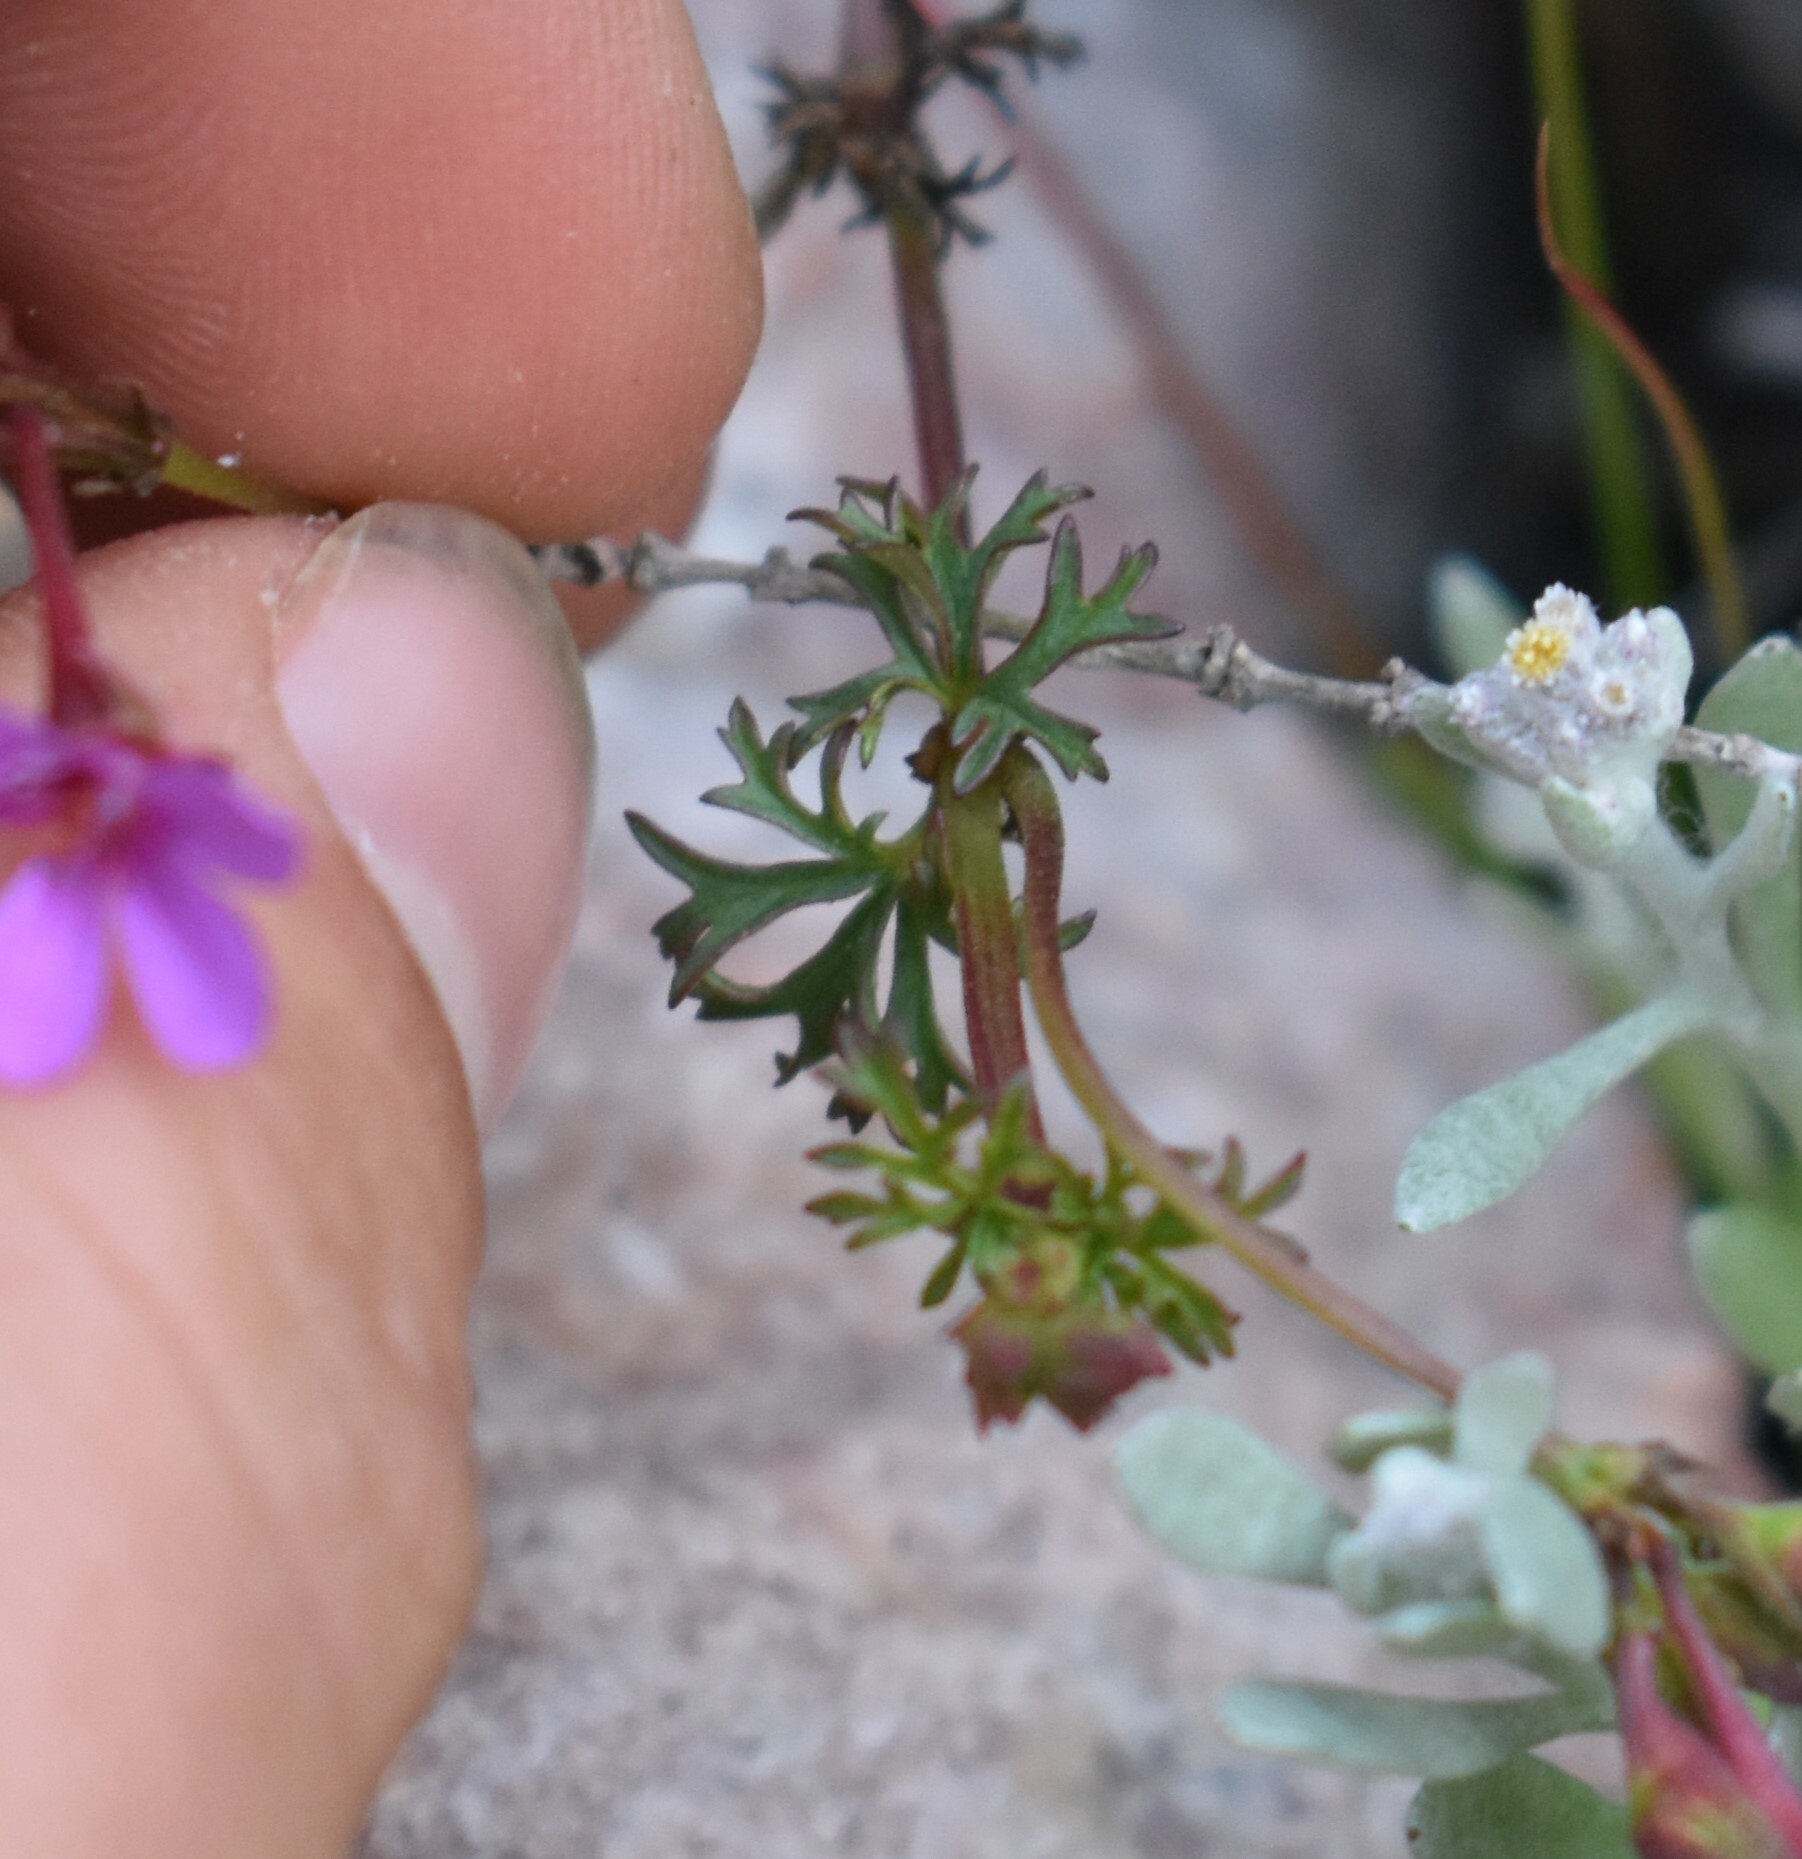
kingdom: Plantae
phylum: Tracheophyta
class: Magnoliopsida
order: Geraniales
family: Geraniaceae
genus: Pelargonium
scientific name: Pelargonium grossularioides
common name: Gooseberry geranium
